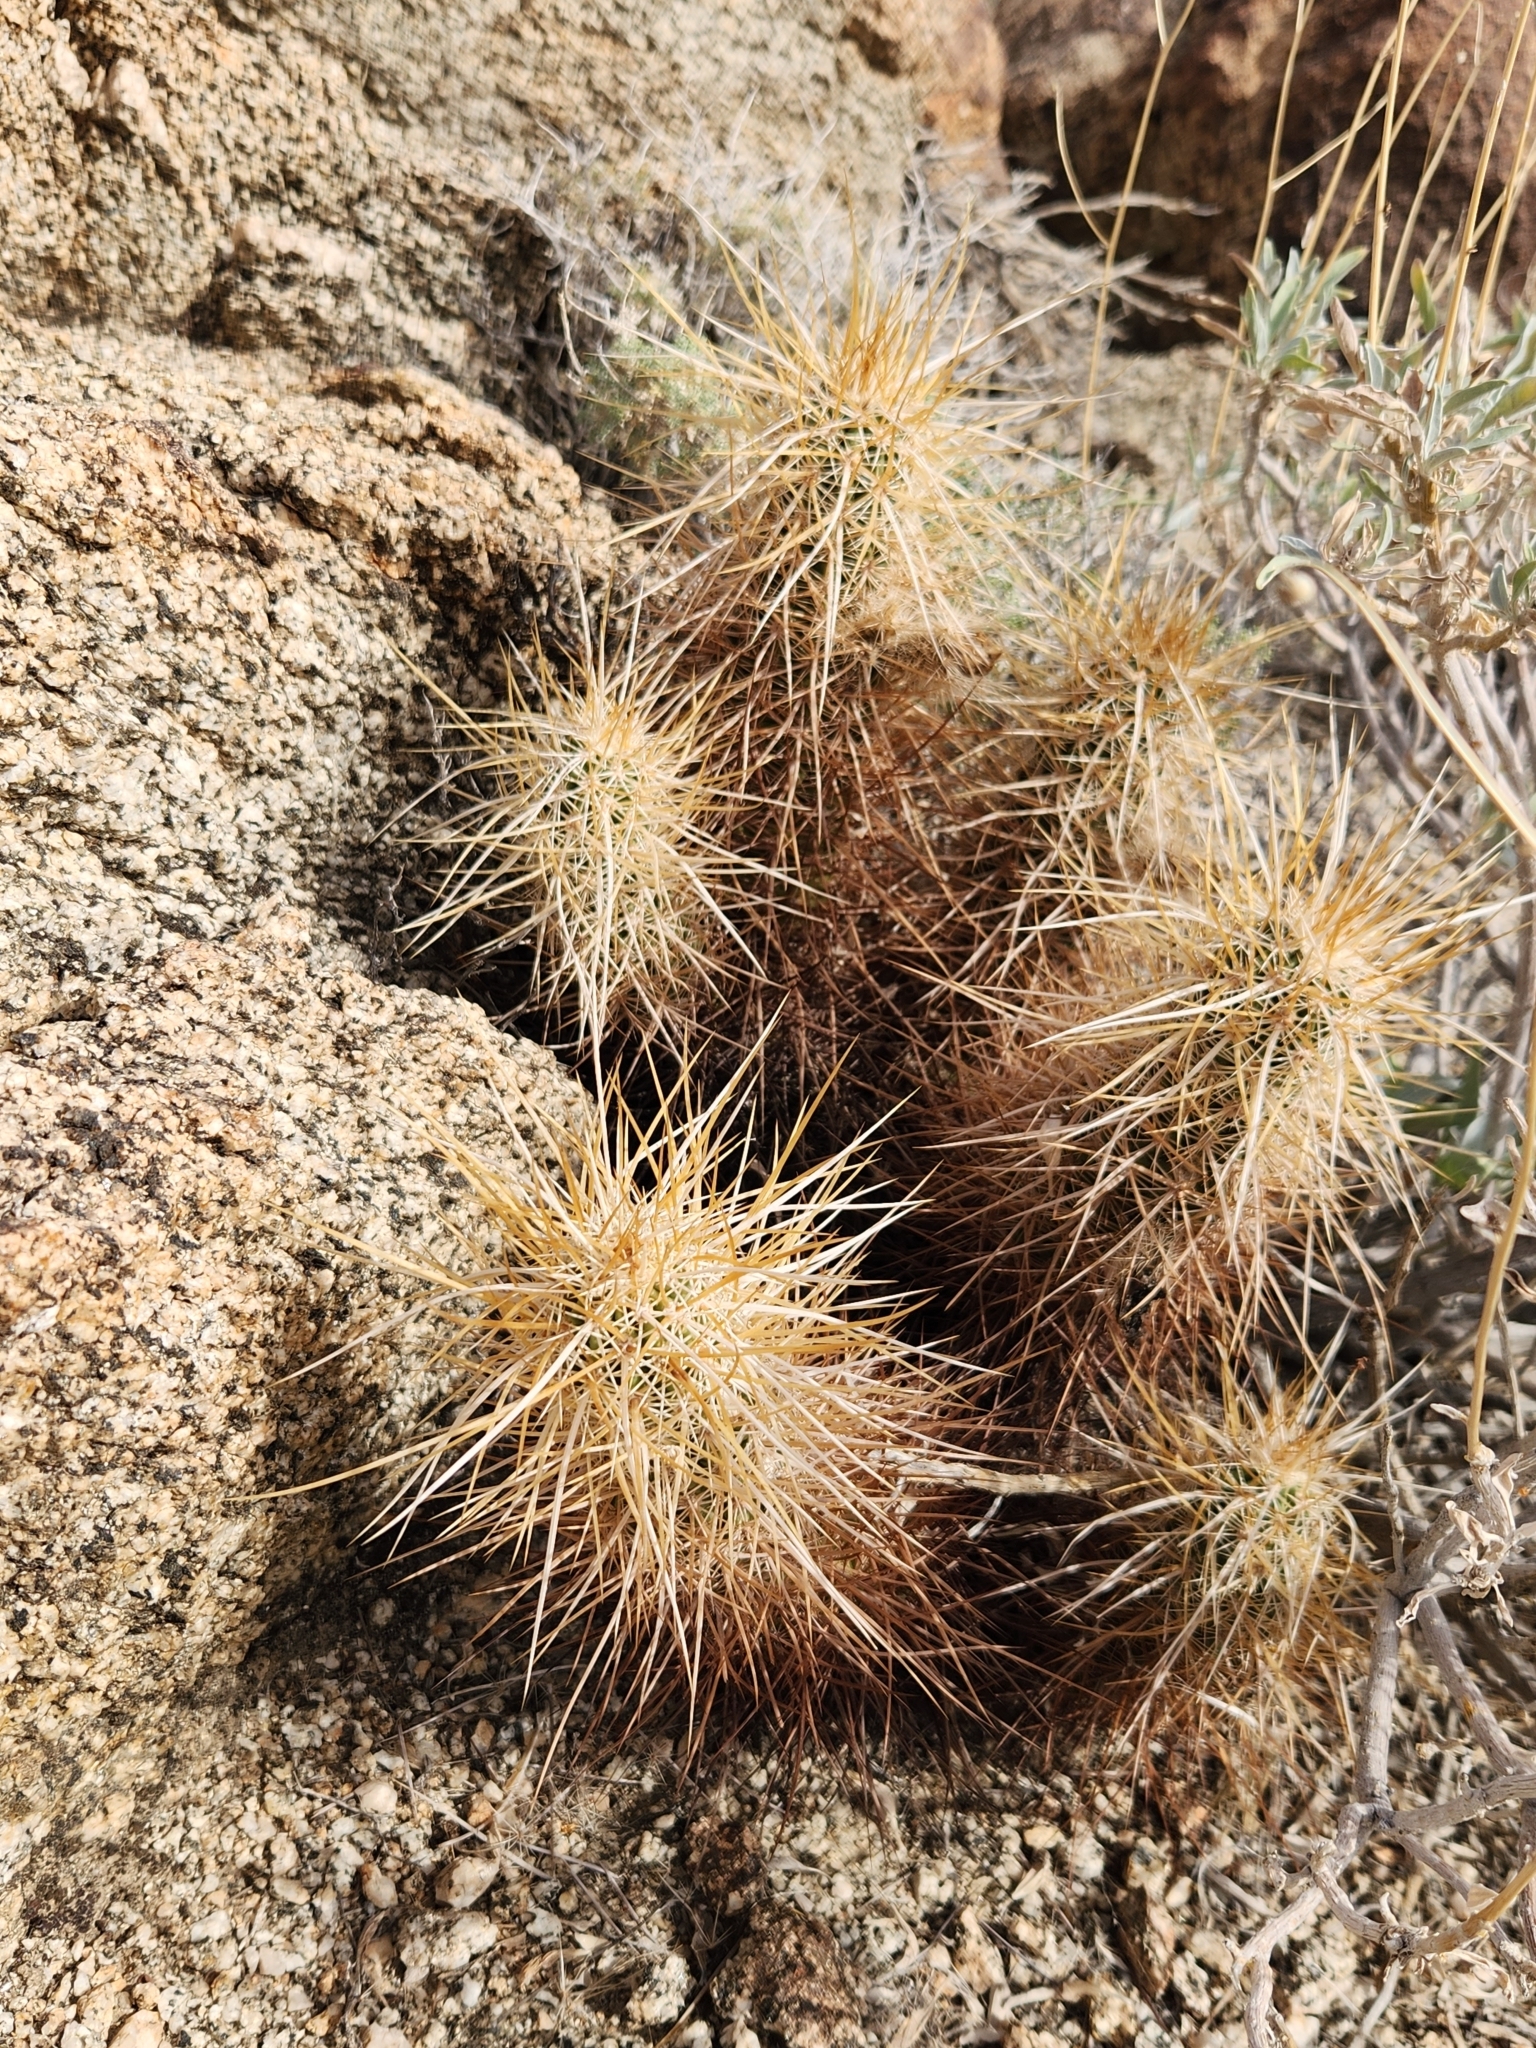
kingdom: Plantae
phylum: Tracheophyta
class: Magnoliopsida
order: Caryophyllales
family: Cactaceae
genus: Echinocereus
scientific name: Echinocereus engelmannii
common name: Engelmann's hedgehog cactus
